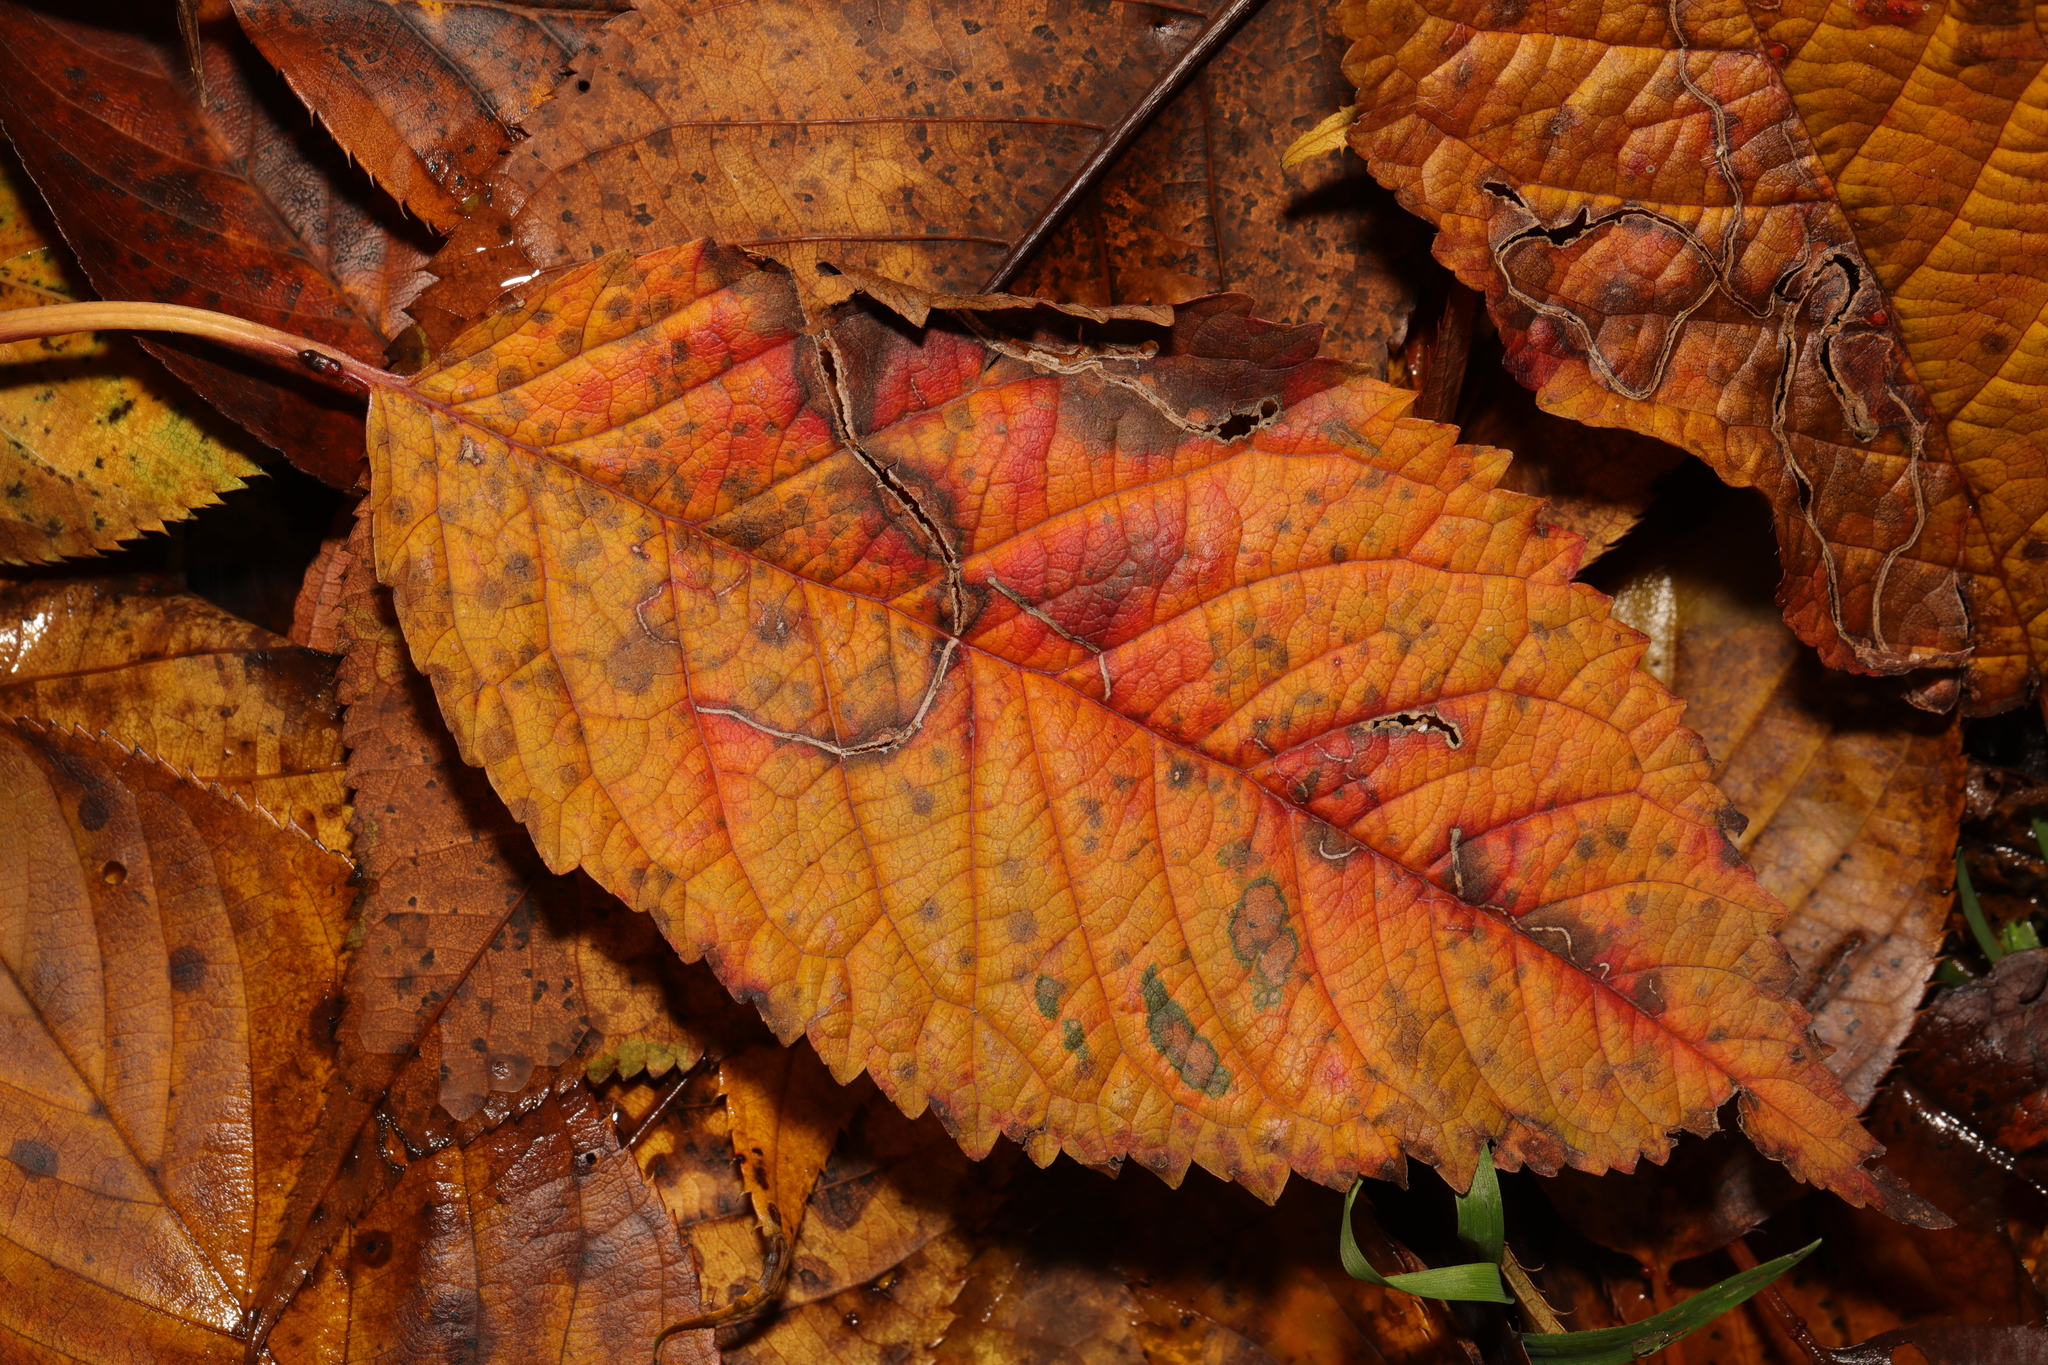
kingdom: Animalia
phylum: Arthropoda
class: Insecta
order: Lepidoptera
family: Lyonetiidae
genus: Lyonetia
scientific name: Lyonetia clerkella
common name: Apple leaf miner
